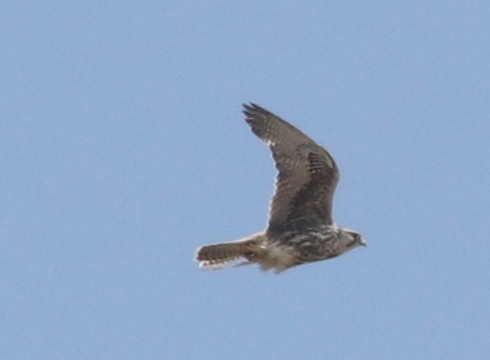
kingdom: Animalia
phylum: Chordata
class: Aves
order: Falconiformes
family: Falconidae
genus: Falco
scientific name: Falco cherrug
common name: Saker falcon
